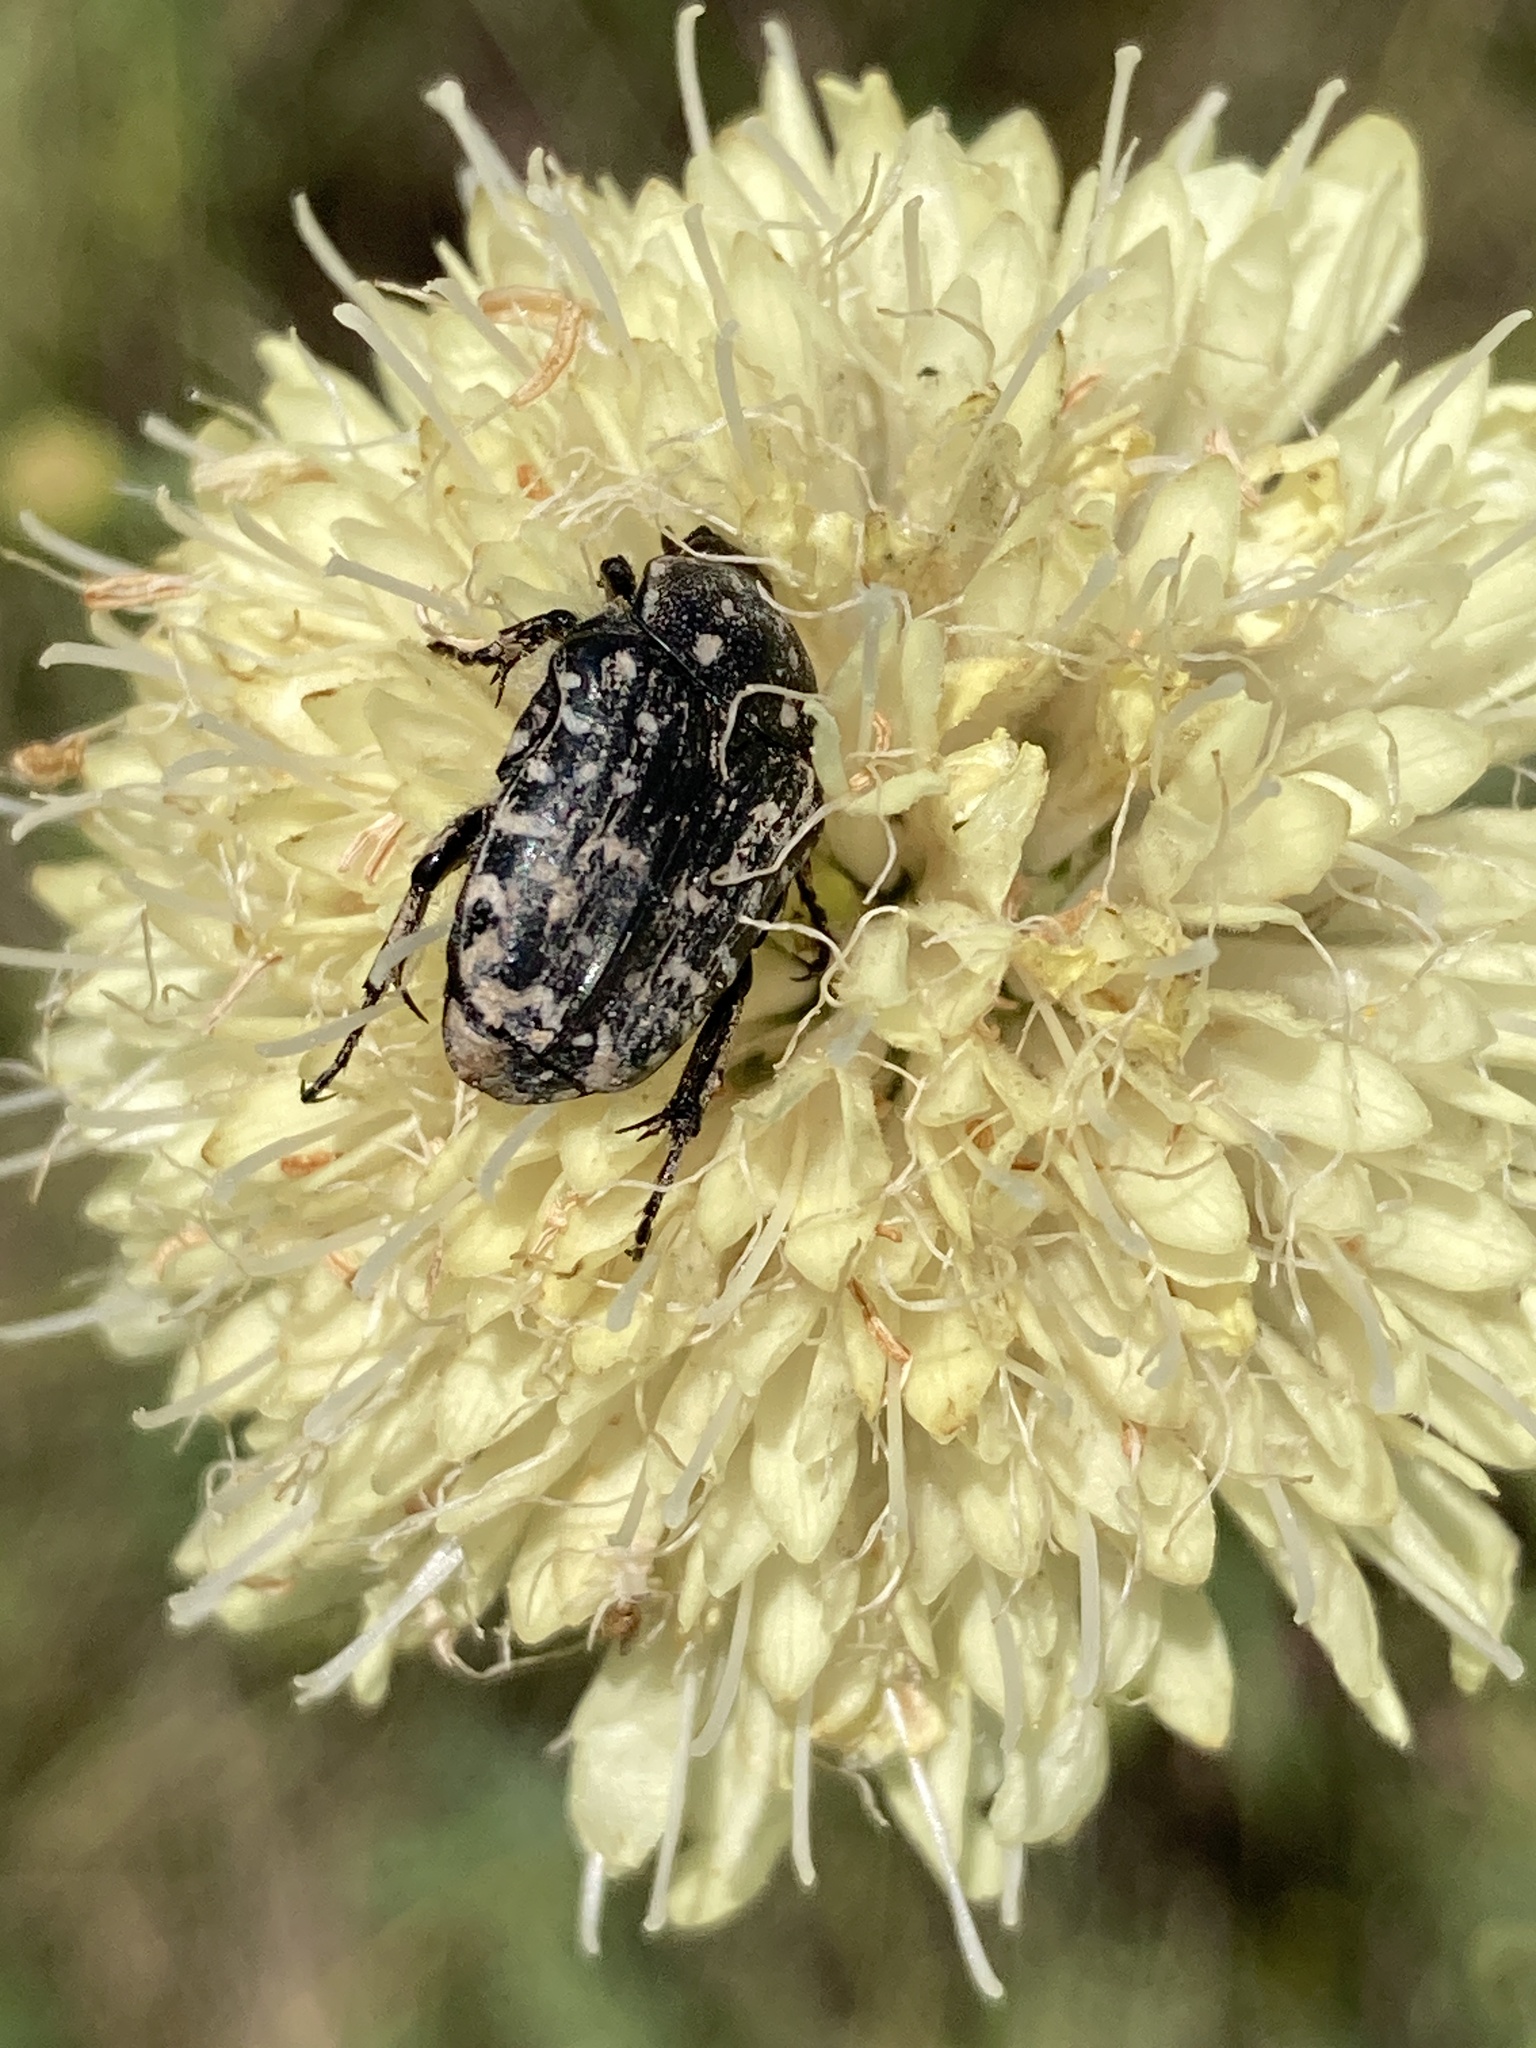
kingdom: Animalia
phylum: Arthropoda
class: Insecta
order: Coleoptera
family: Scarabaeidae
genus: Oxythyrea
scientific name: Oxythyrea funesta
